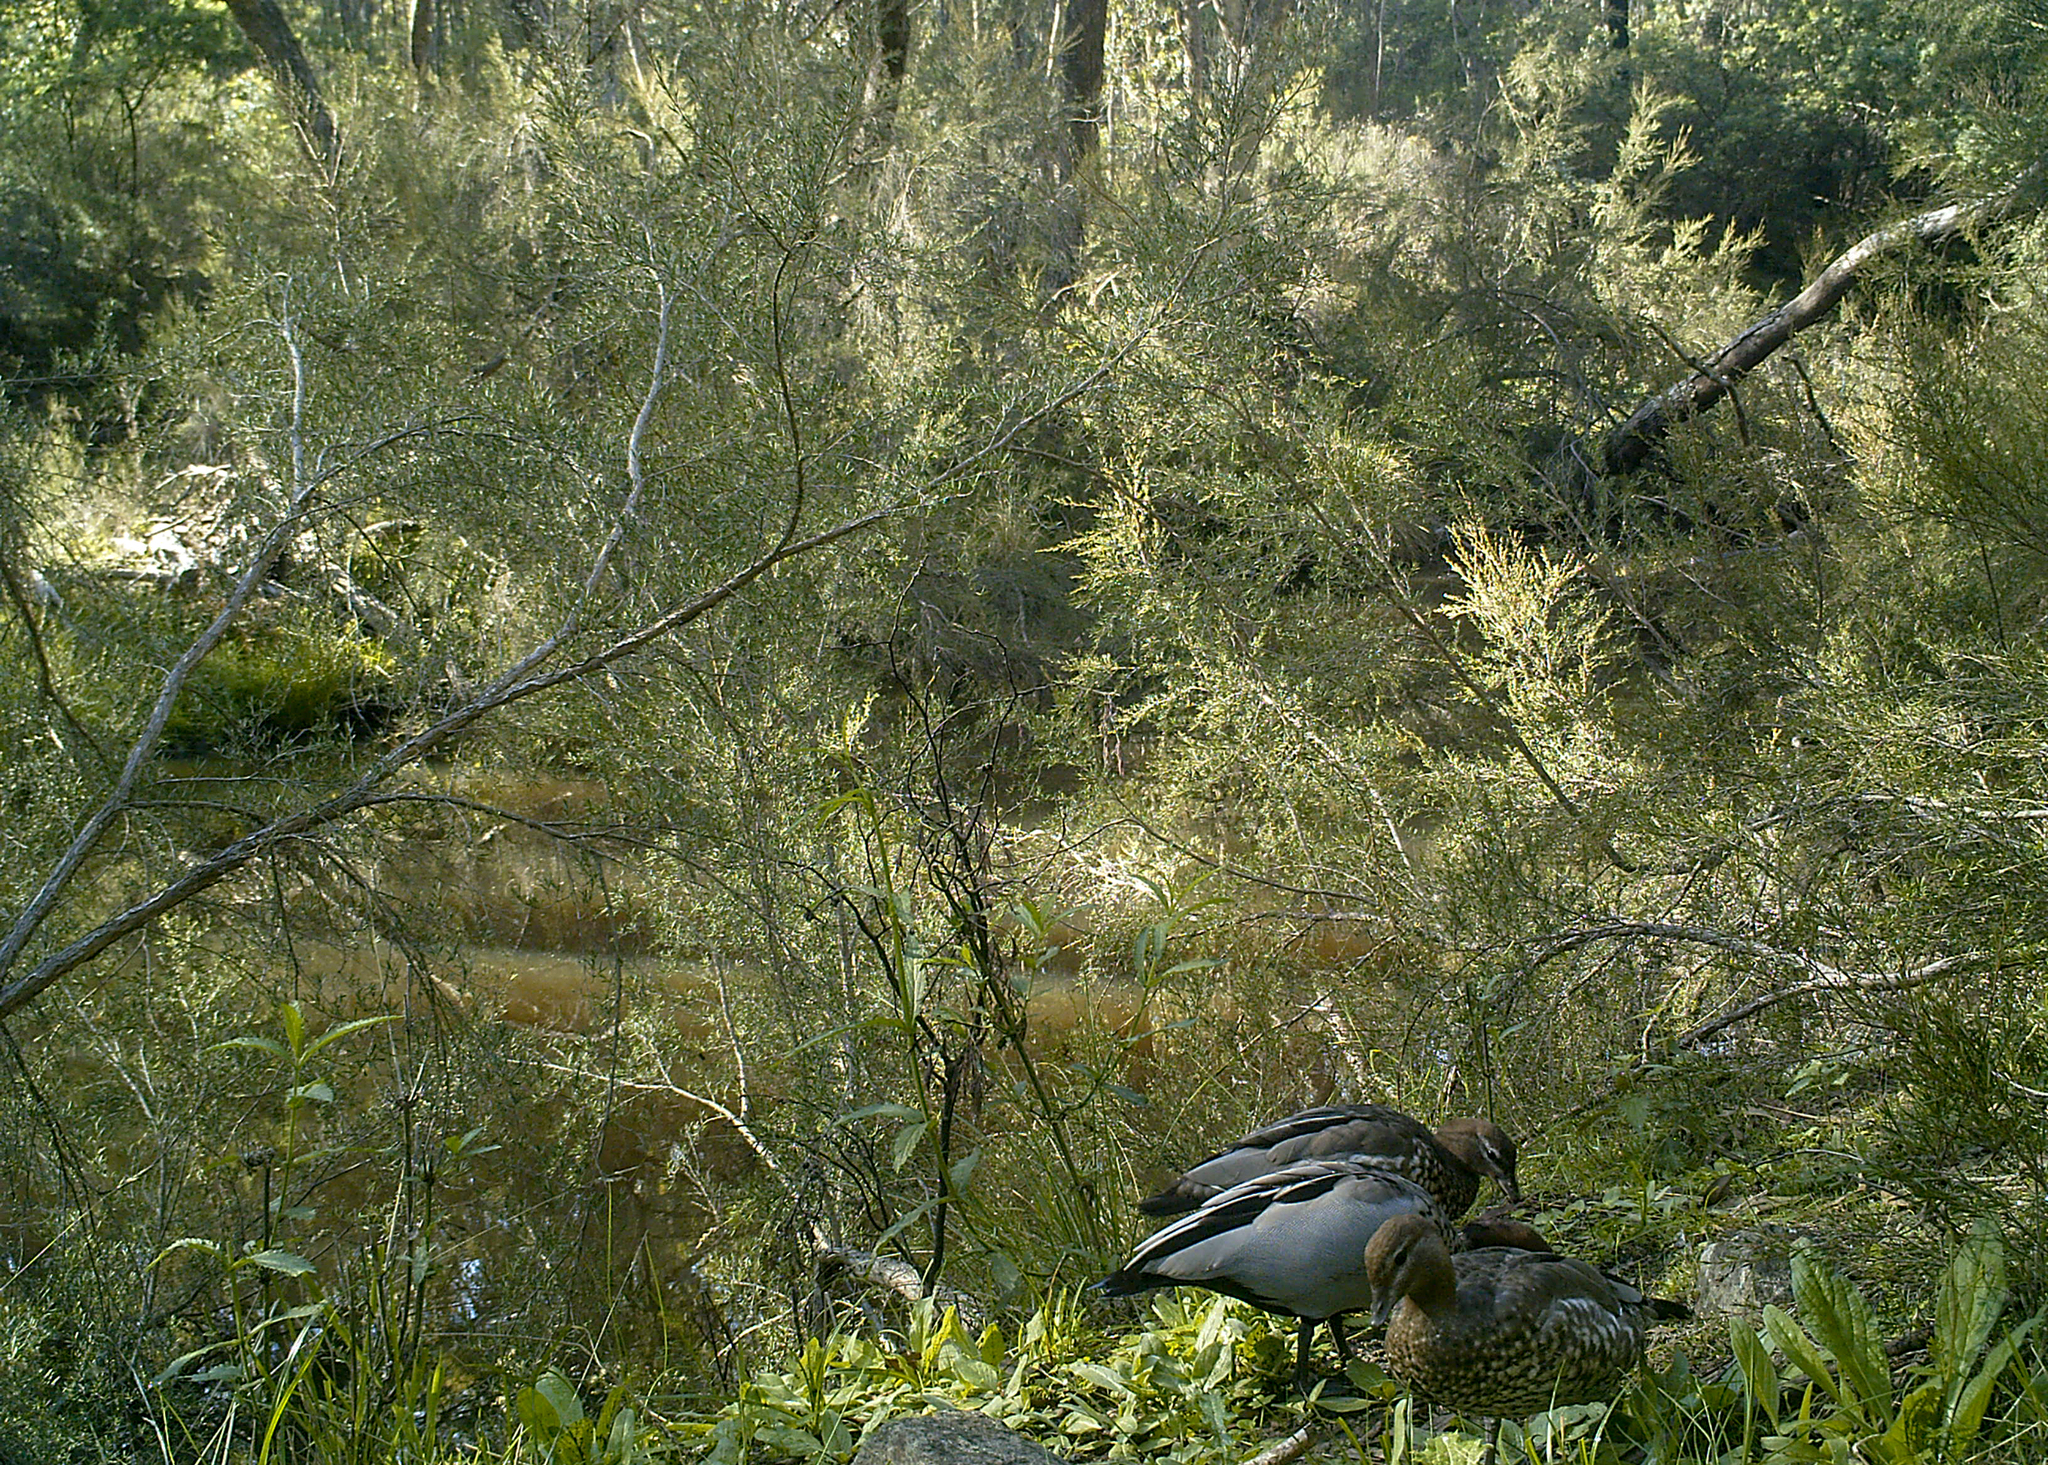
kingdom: Animalia
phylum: Chordata
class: Aves
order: Anseriformes
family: Anatidae
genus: Chenonetta
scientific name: Chenonetta jubata
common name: Maned duck
